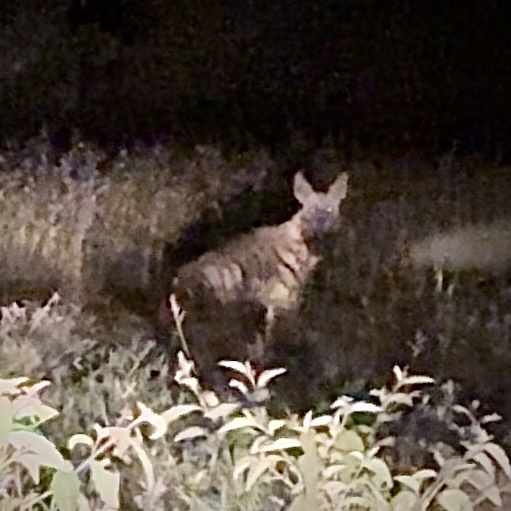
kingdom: Animalia
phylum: Chordata
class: Mammalia
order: Carnivora
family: Hyaenidae
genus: Hyaena
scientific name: Hyaena dubbah
